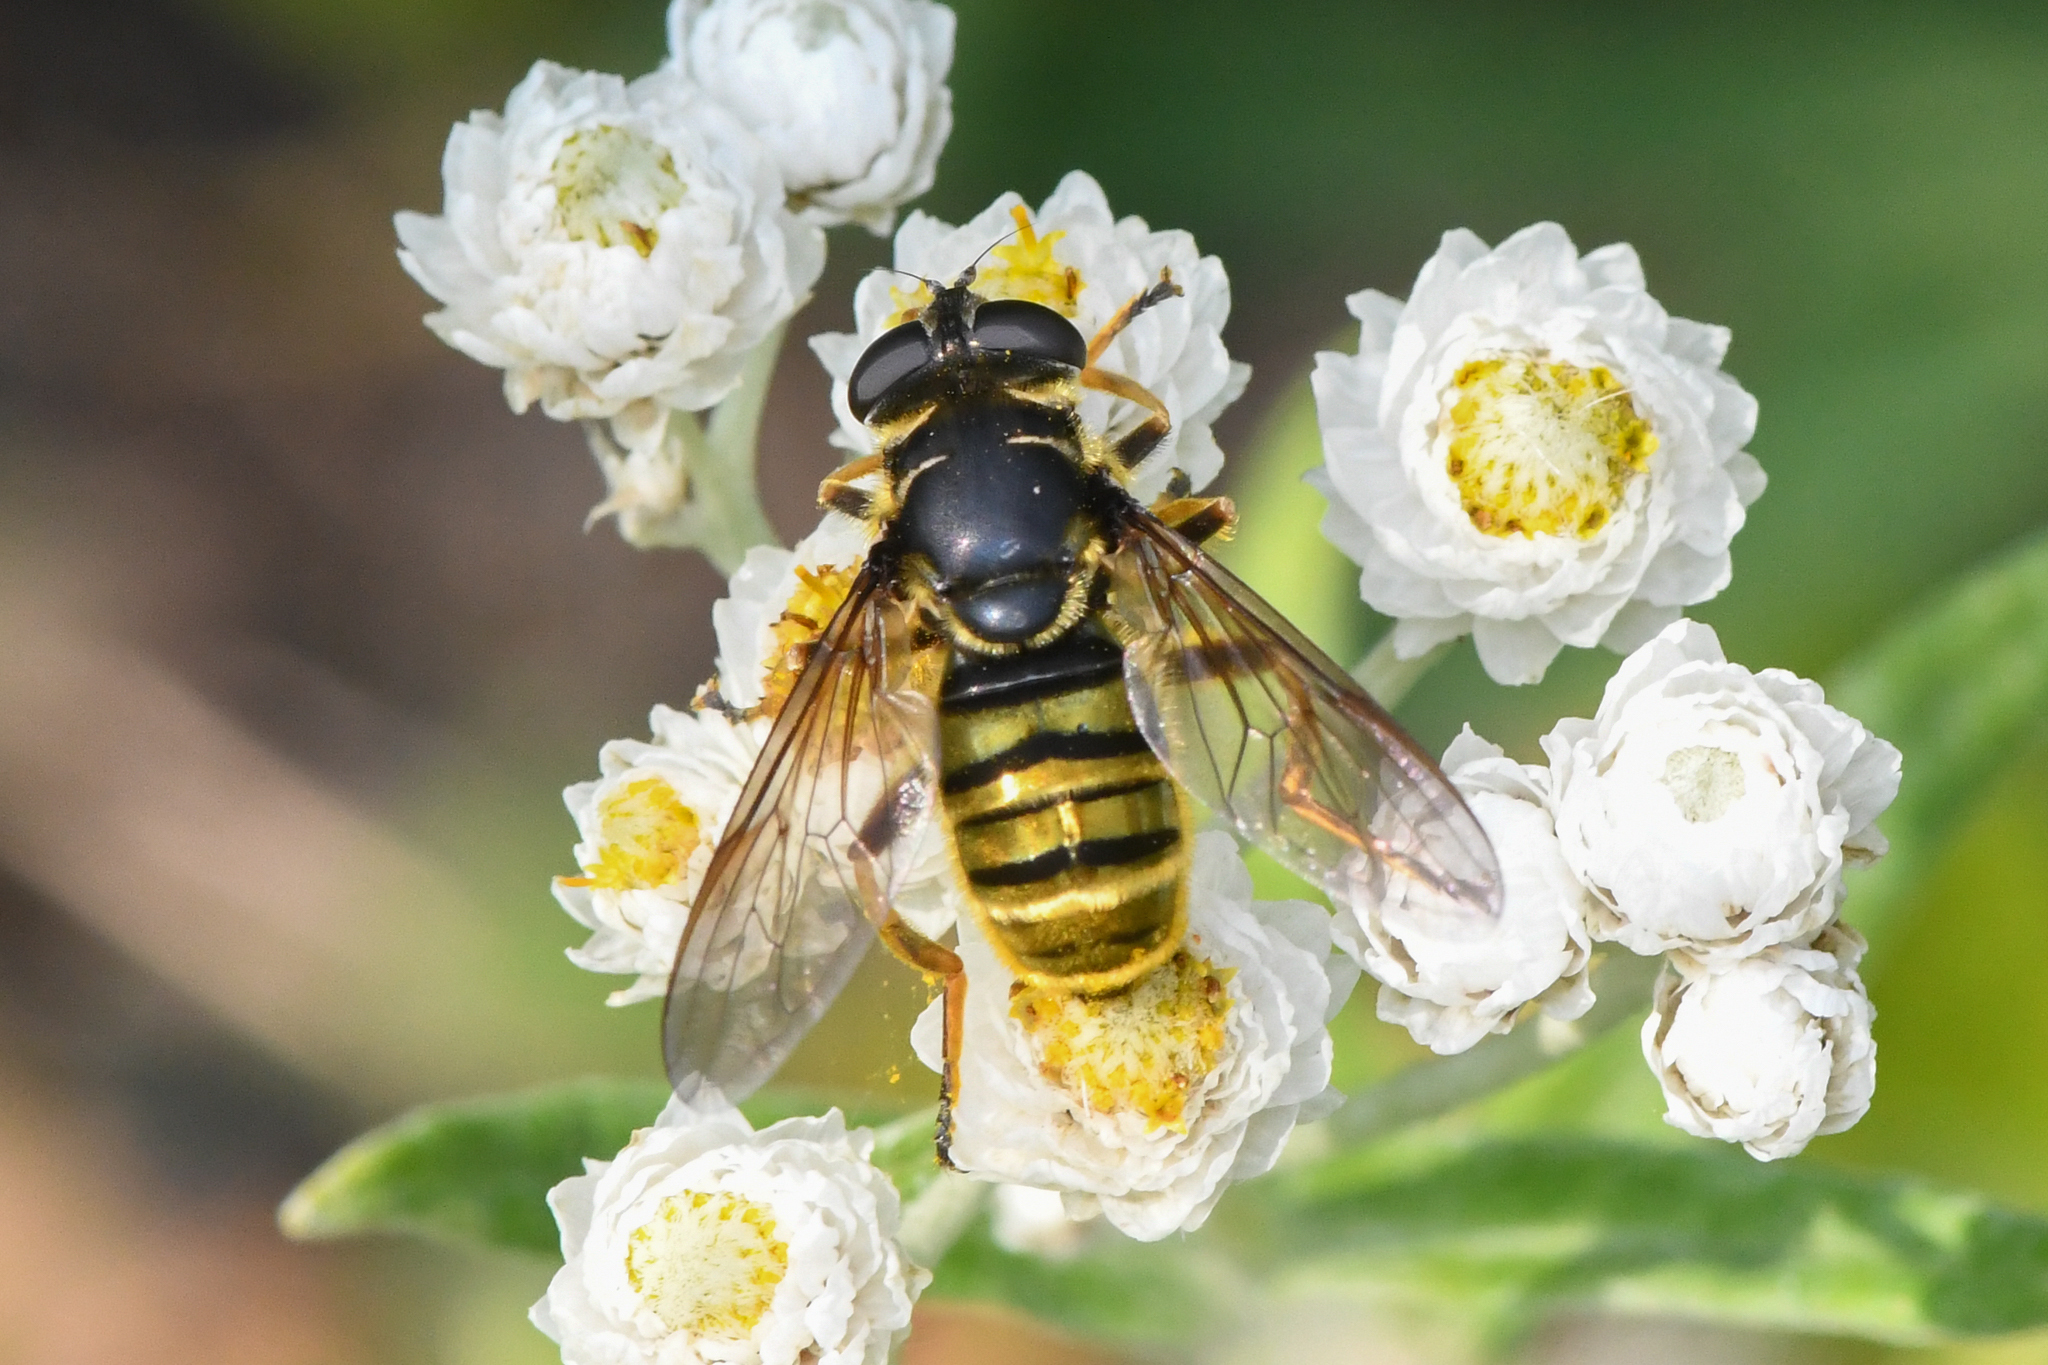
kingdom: Animalia
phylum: Arthropoda
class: Insecta
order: Diptera
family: Syrphidae
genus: Hadromyia
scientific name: Hadromyia pulchra
